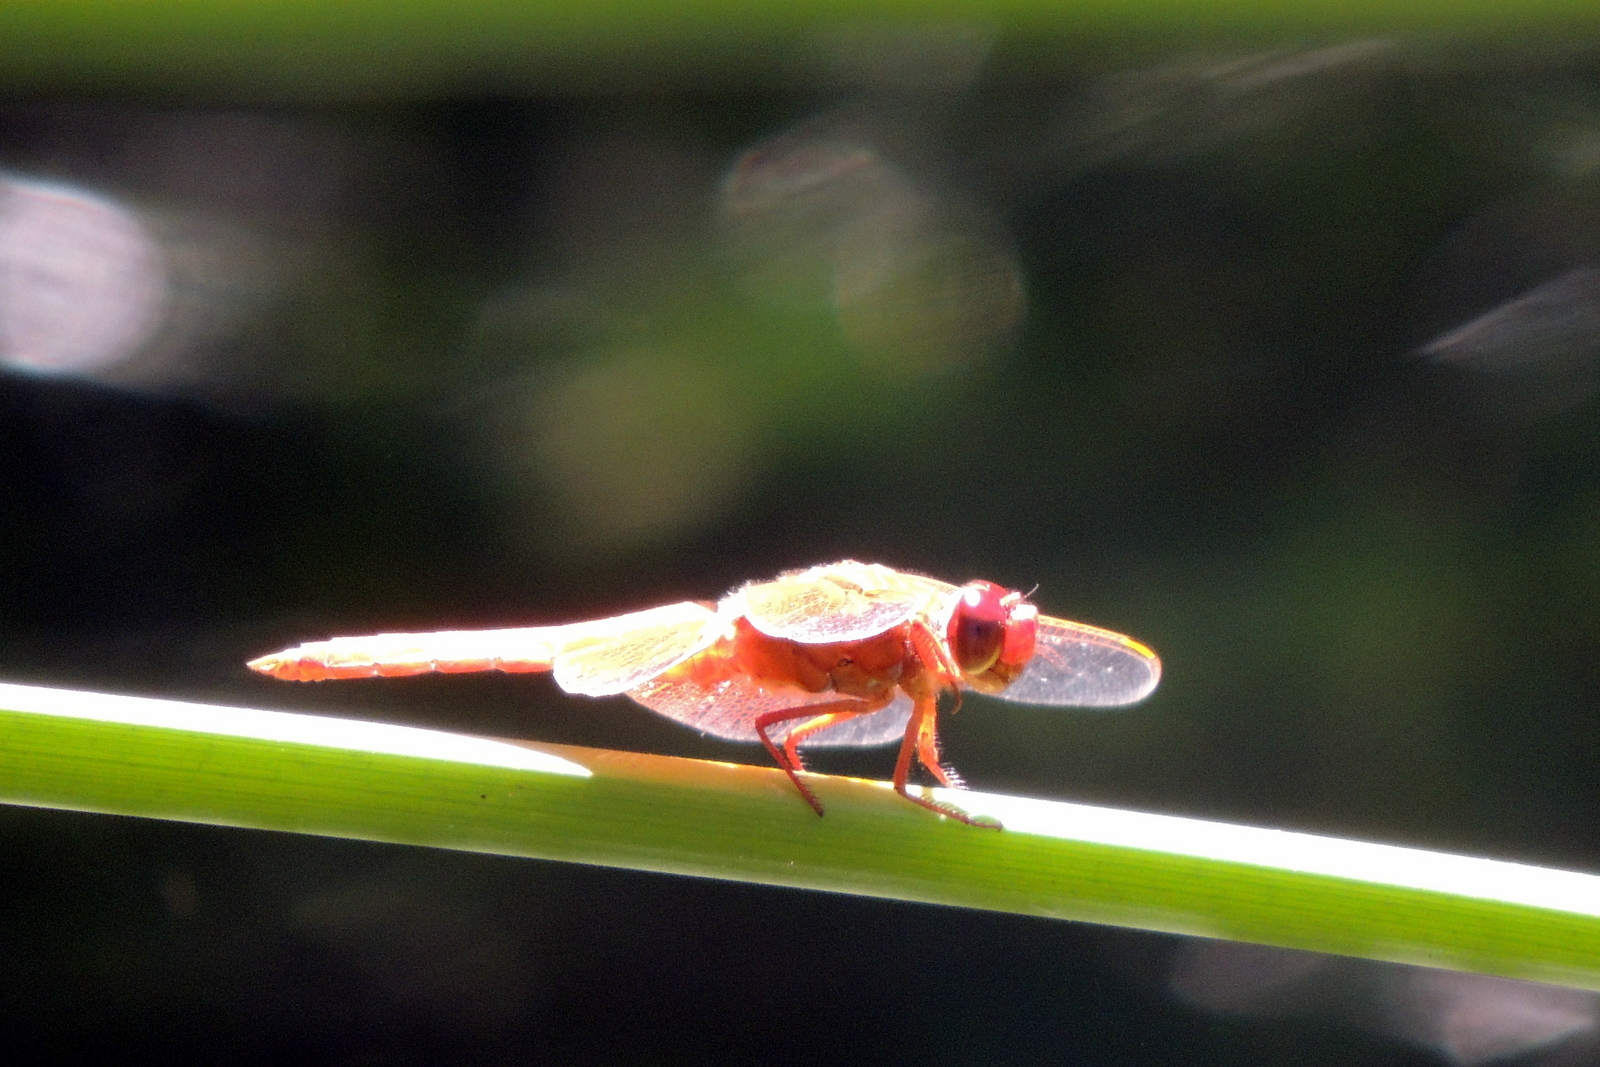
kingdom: Animalia
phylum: Arthropoda
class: Insecta
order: Odonata
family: Libellulidae
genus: Libellula
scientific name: Libellula saturata
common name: Flame skimmer
